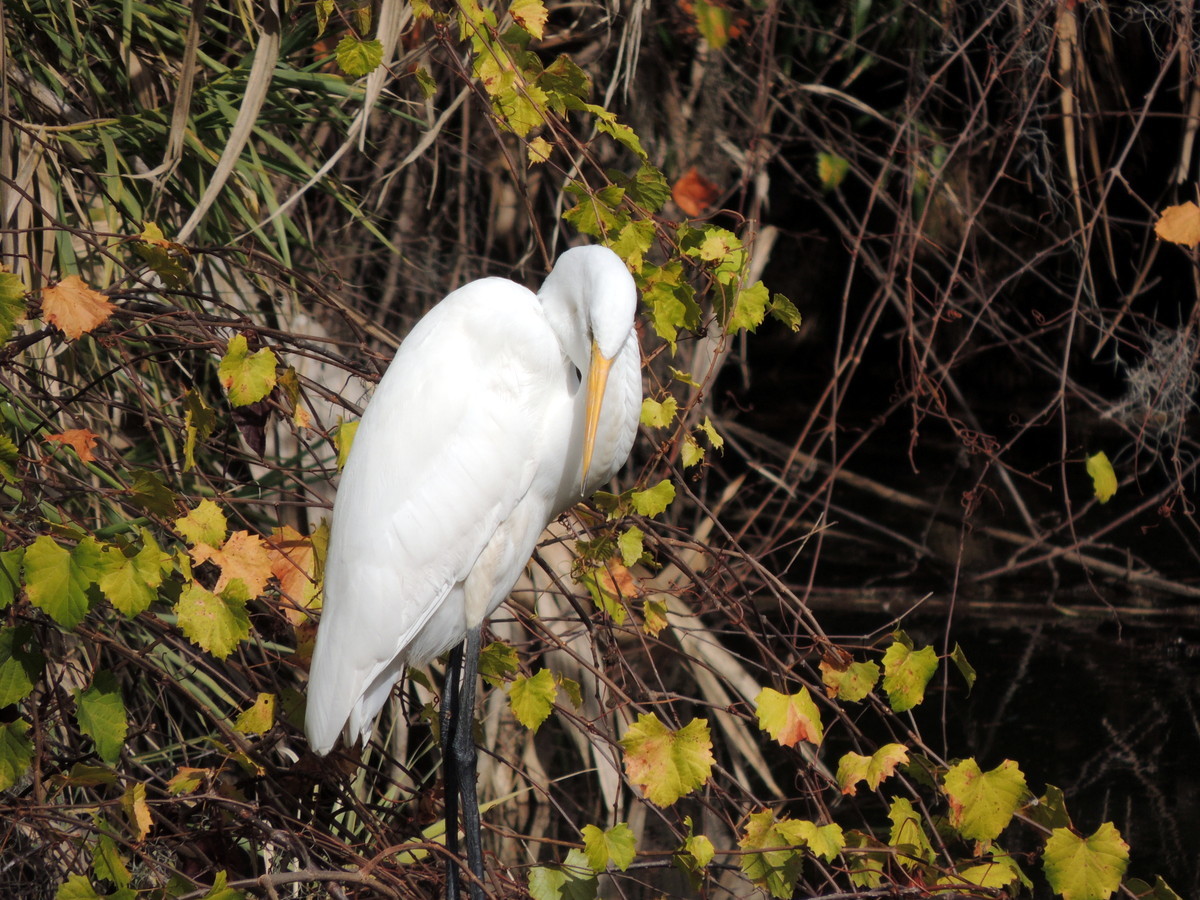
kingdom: Animalia
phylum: Chordata
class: Aves
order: Pelecaniformes
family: Ardeidae
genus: Ardea
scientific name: Ardea alba
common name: Great egret
